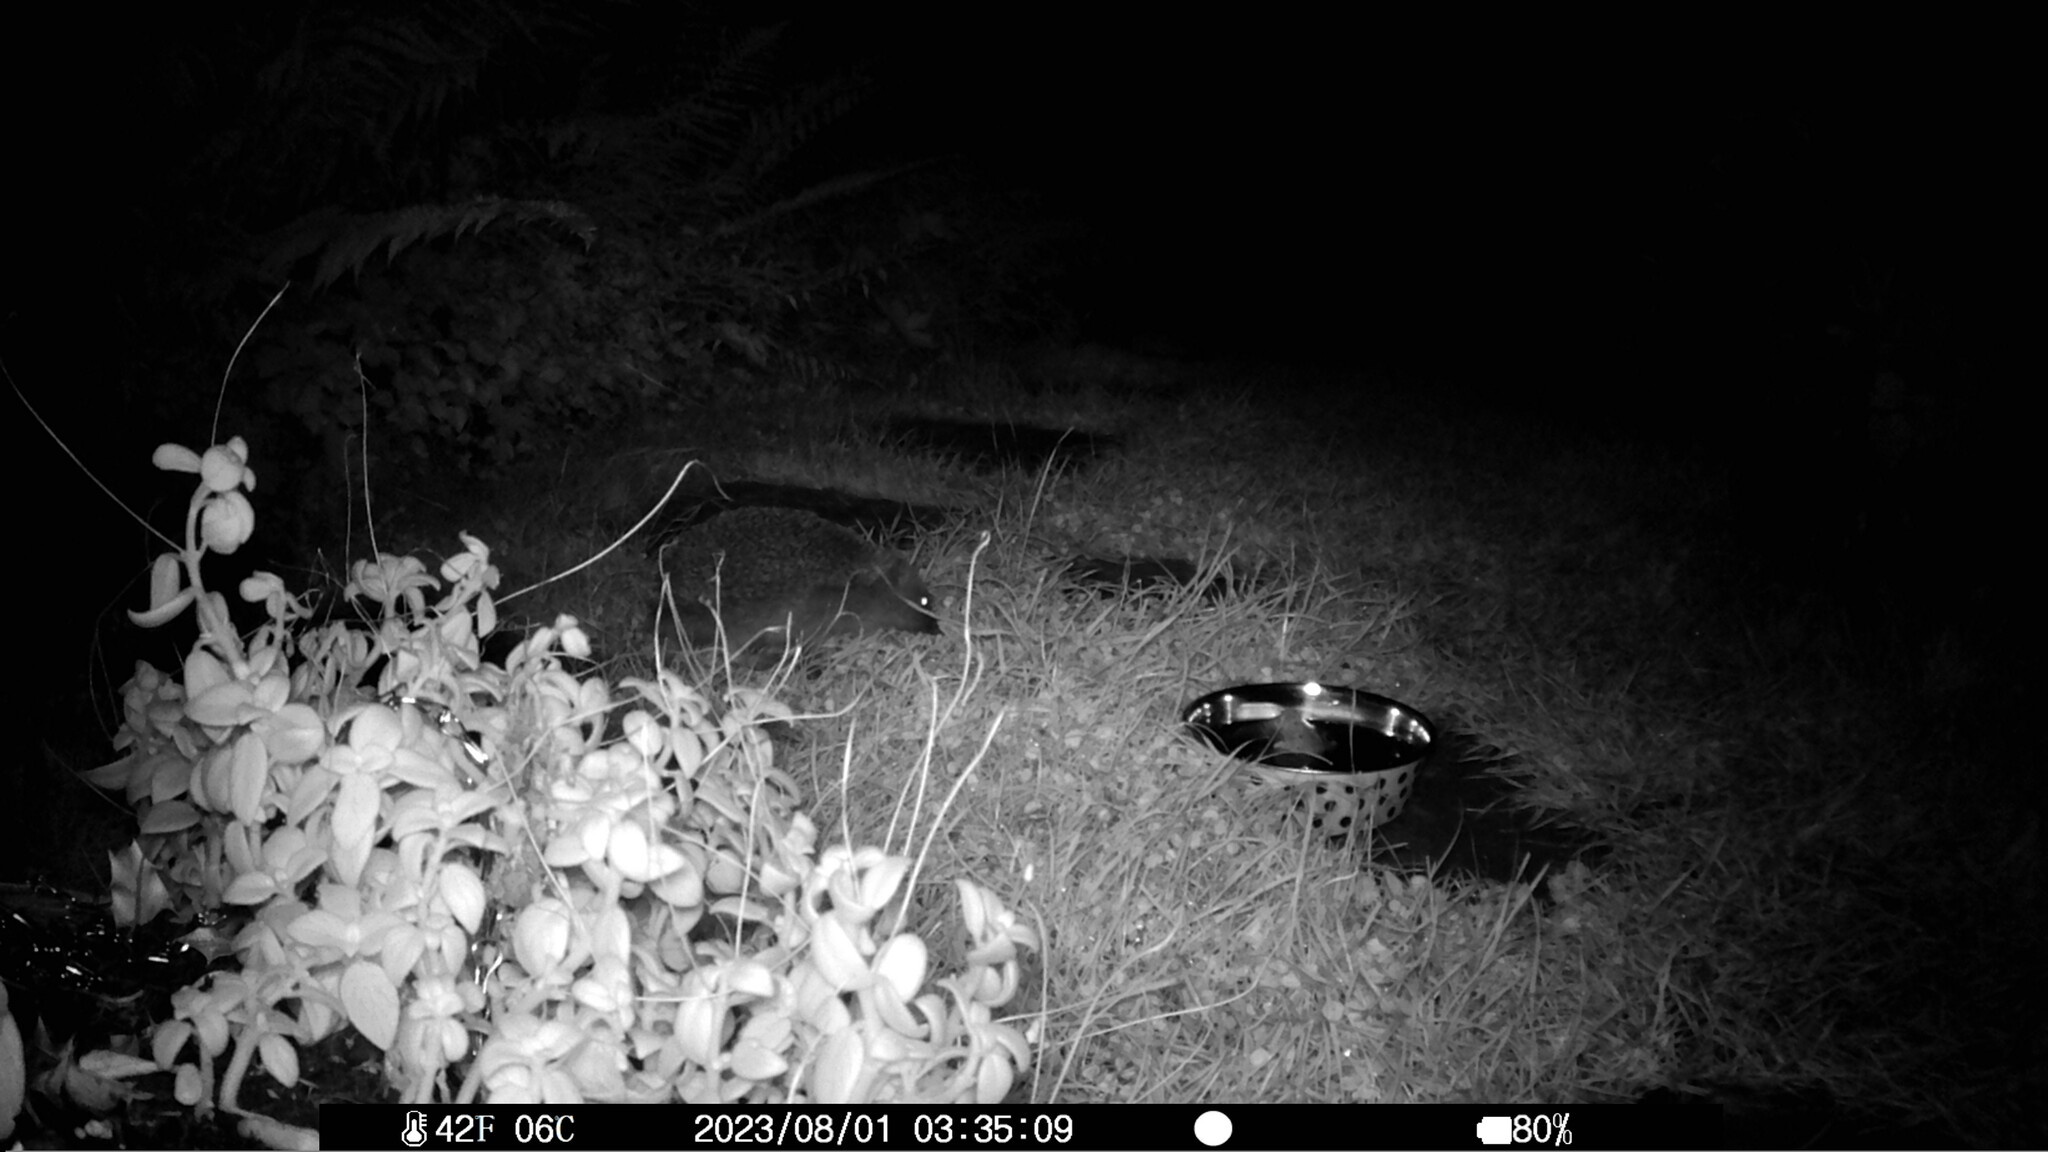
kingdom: Animalia
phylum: Chordata
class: Mammalia
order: Erinaceomorpha
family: Erinaceidae
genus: Erinaceus
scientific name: Erinaceus europaeus
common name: West european hedgehog
